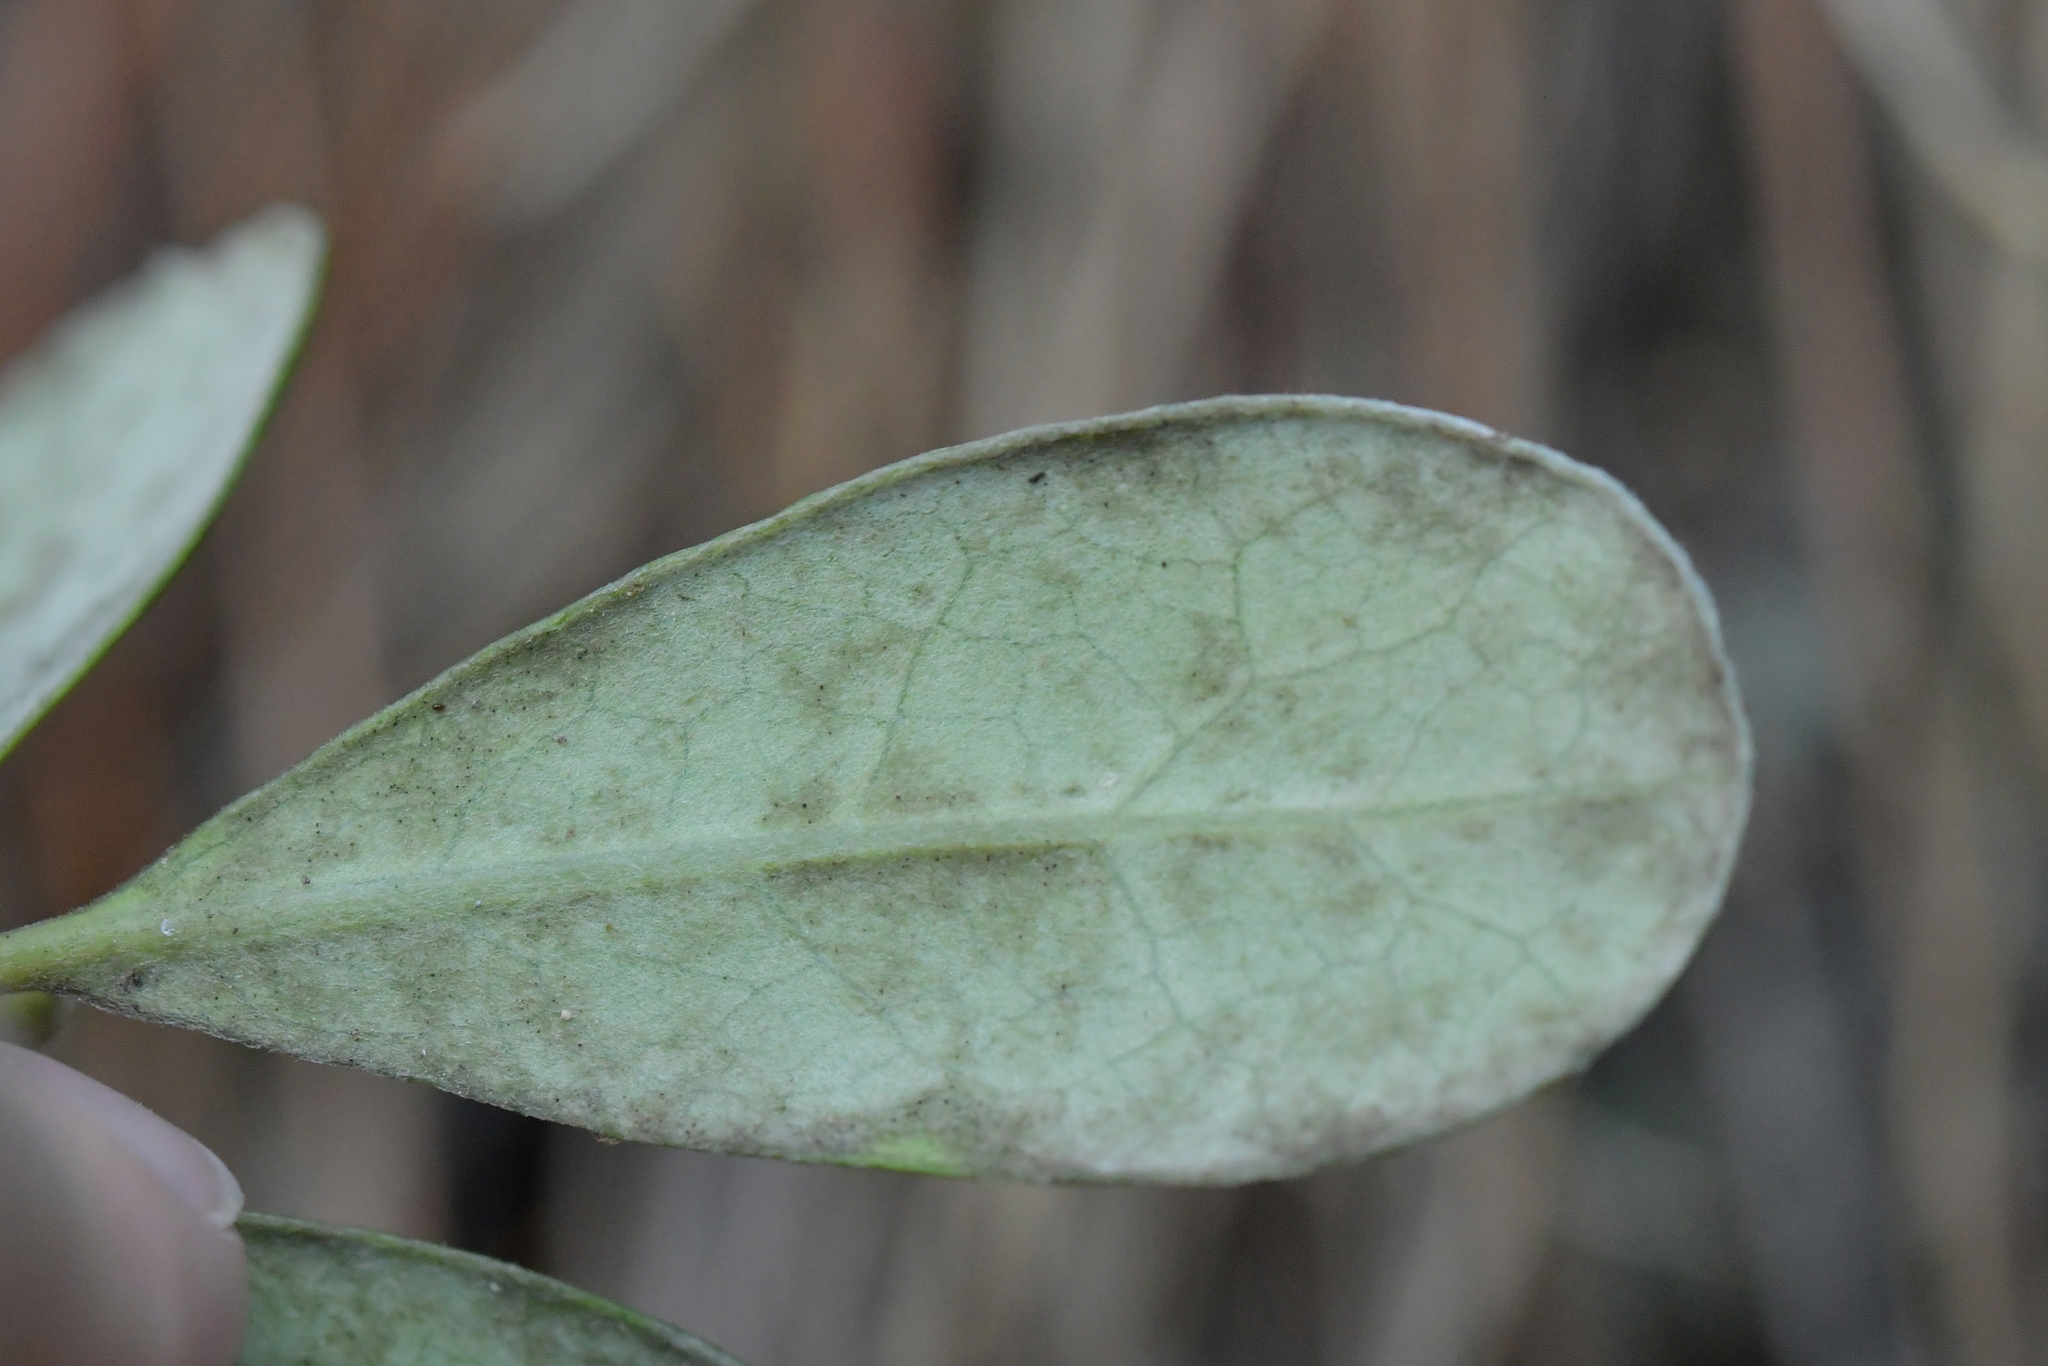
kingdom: Plantae
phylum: Tracheophyta
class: Magnoliopsida
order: Apiales
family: Pittosporaceae
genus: Pittosporum
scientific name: Pittosporum crassifolium
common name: Karo
